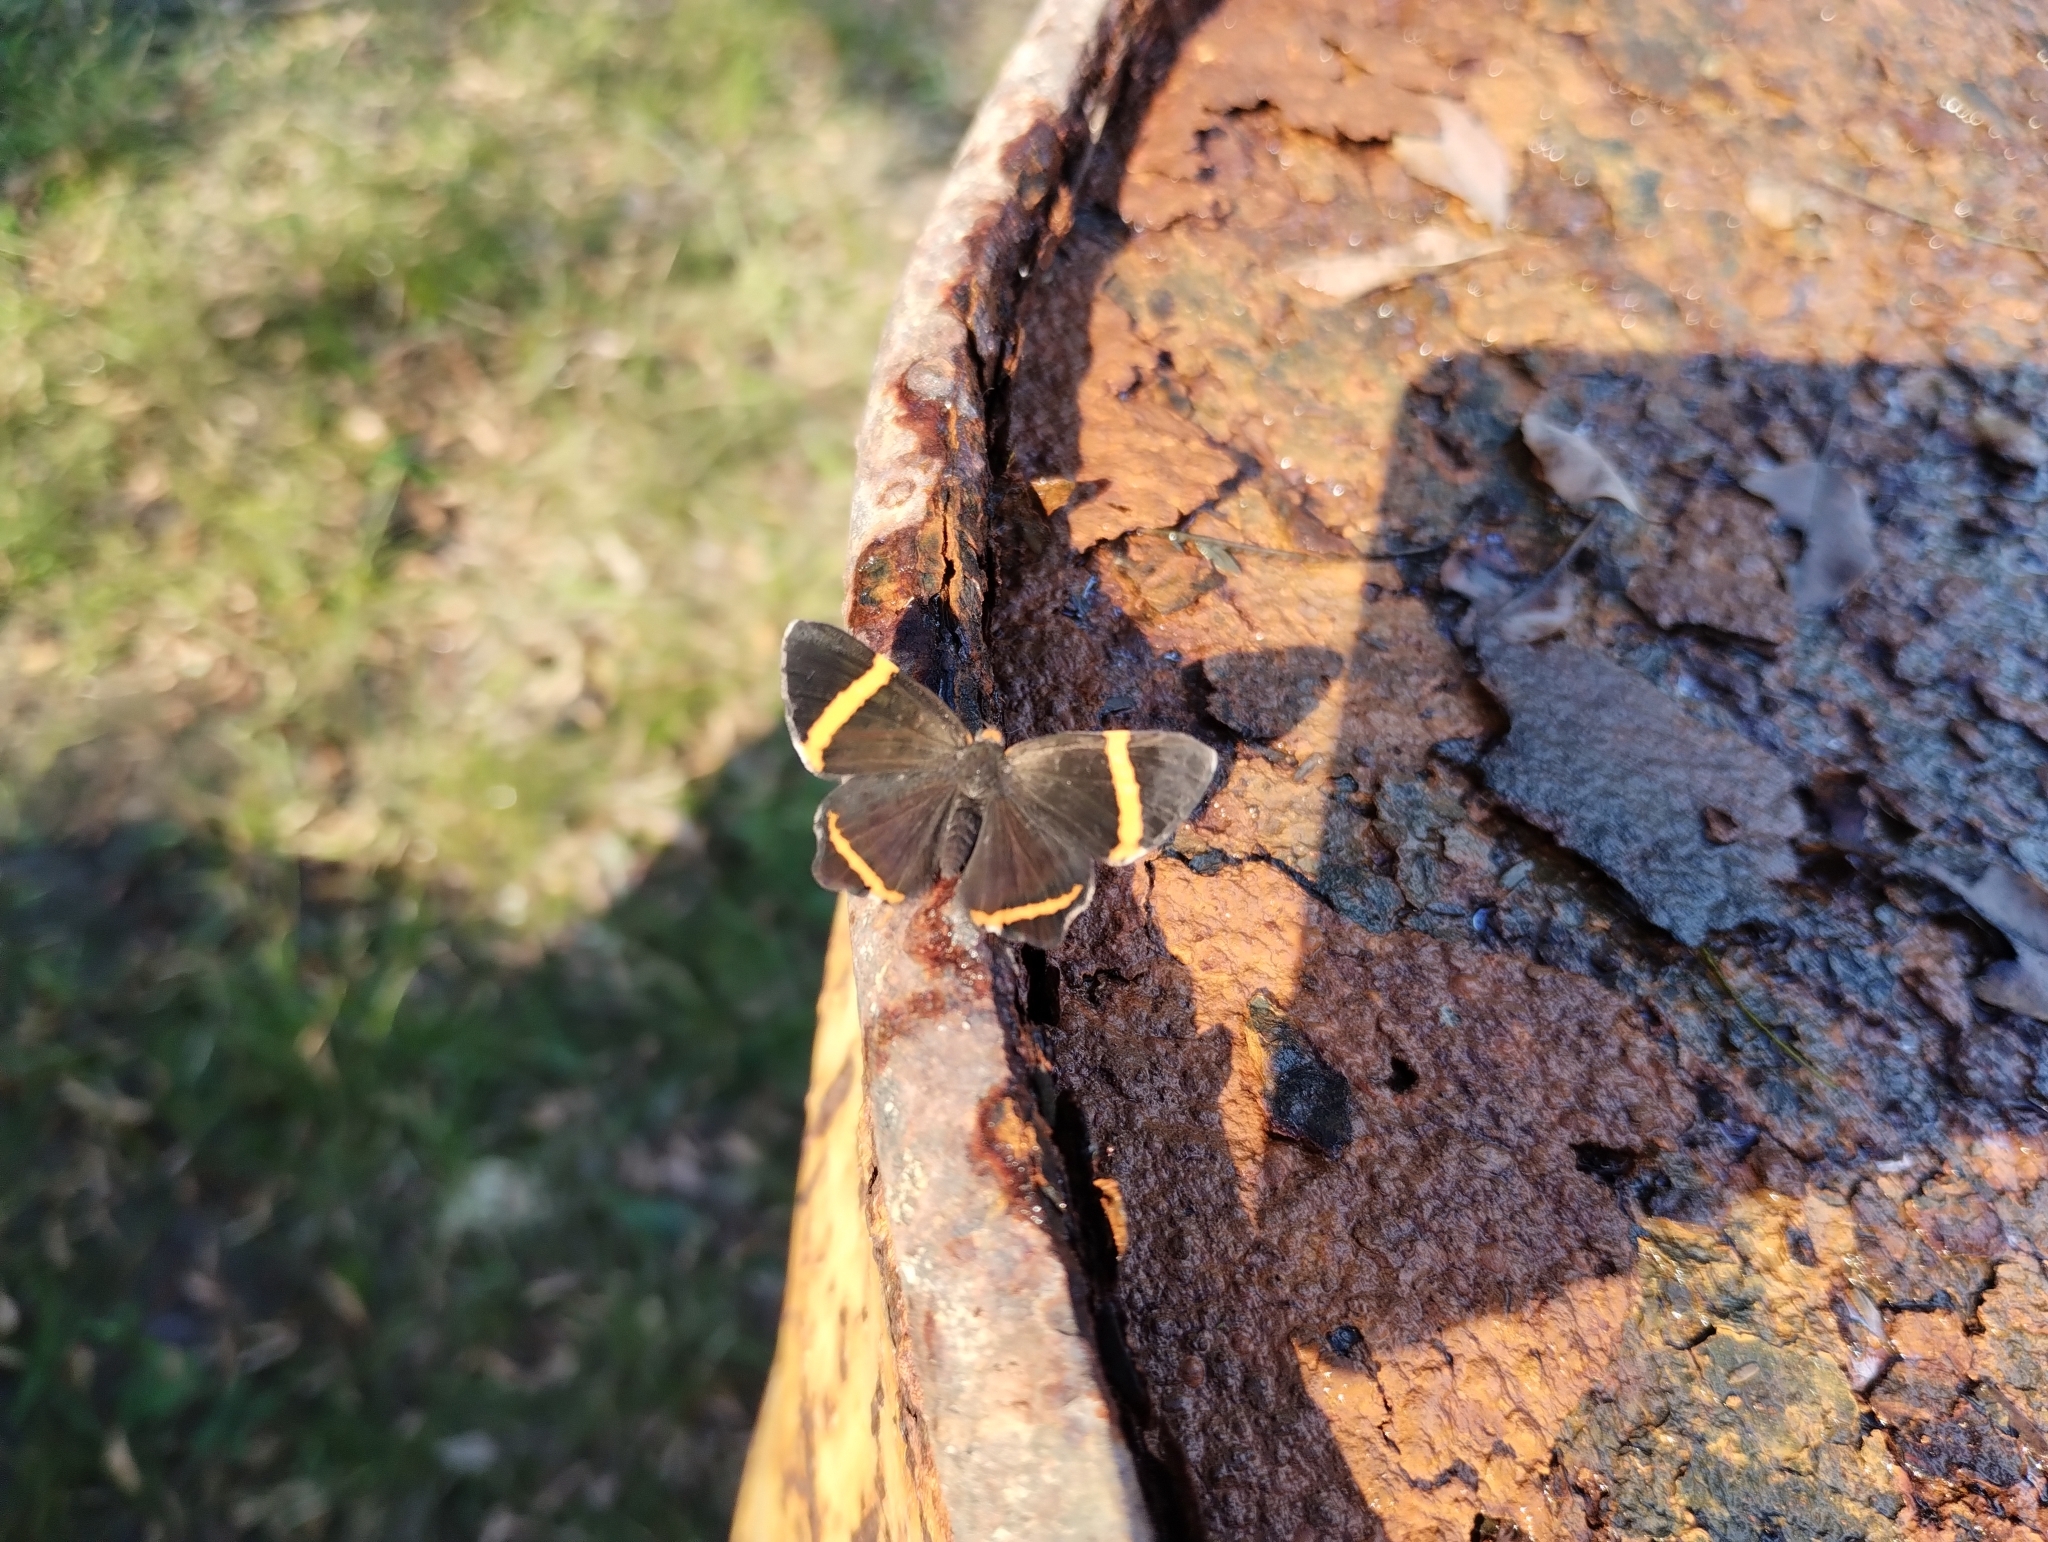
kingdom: Animalia
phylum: Arthropoda
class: Insecta
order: Lepidoptera
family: Riodinidae
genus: Riodina
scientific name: Riodina lysippoides
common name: Little dancer metalmark
